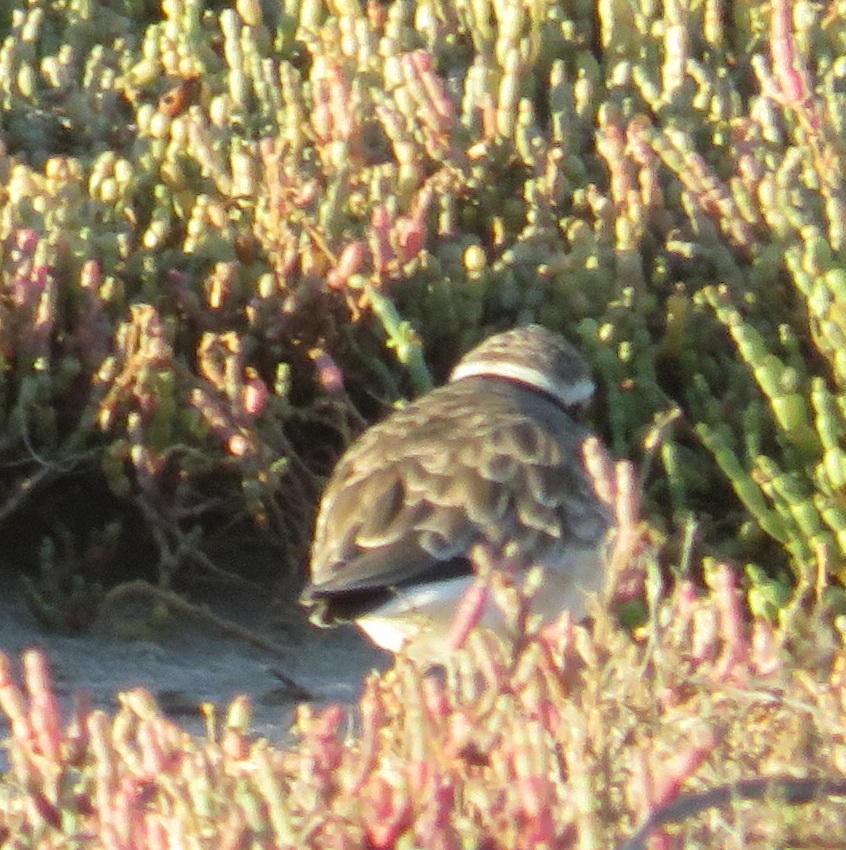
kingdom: Animalia
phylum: Chordata
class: Aves
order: Charadriiformes
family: Charadriidae
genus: Anarhynchus
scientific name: Anarhynchus
